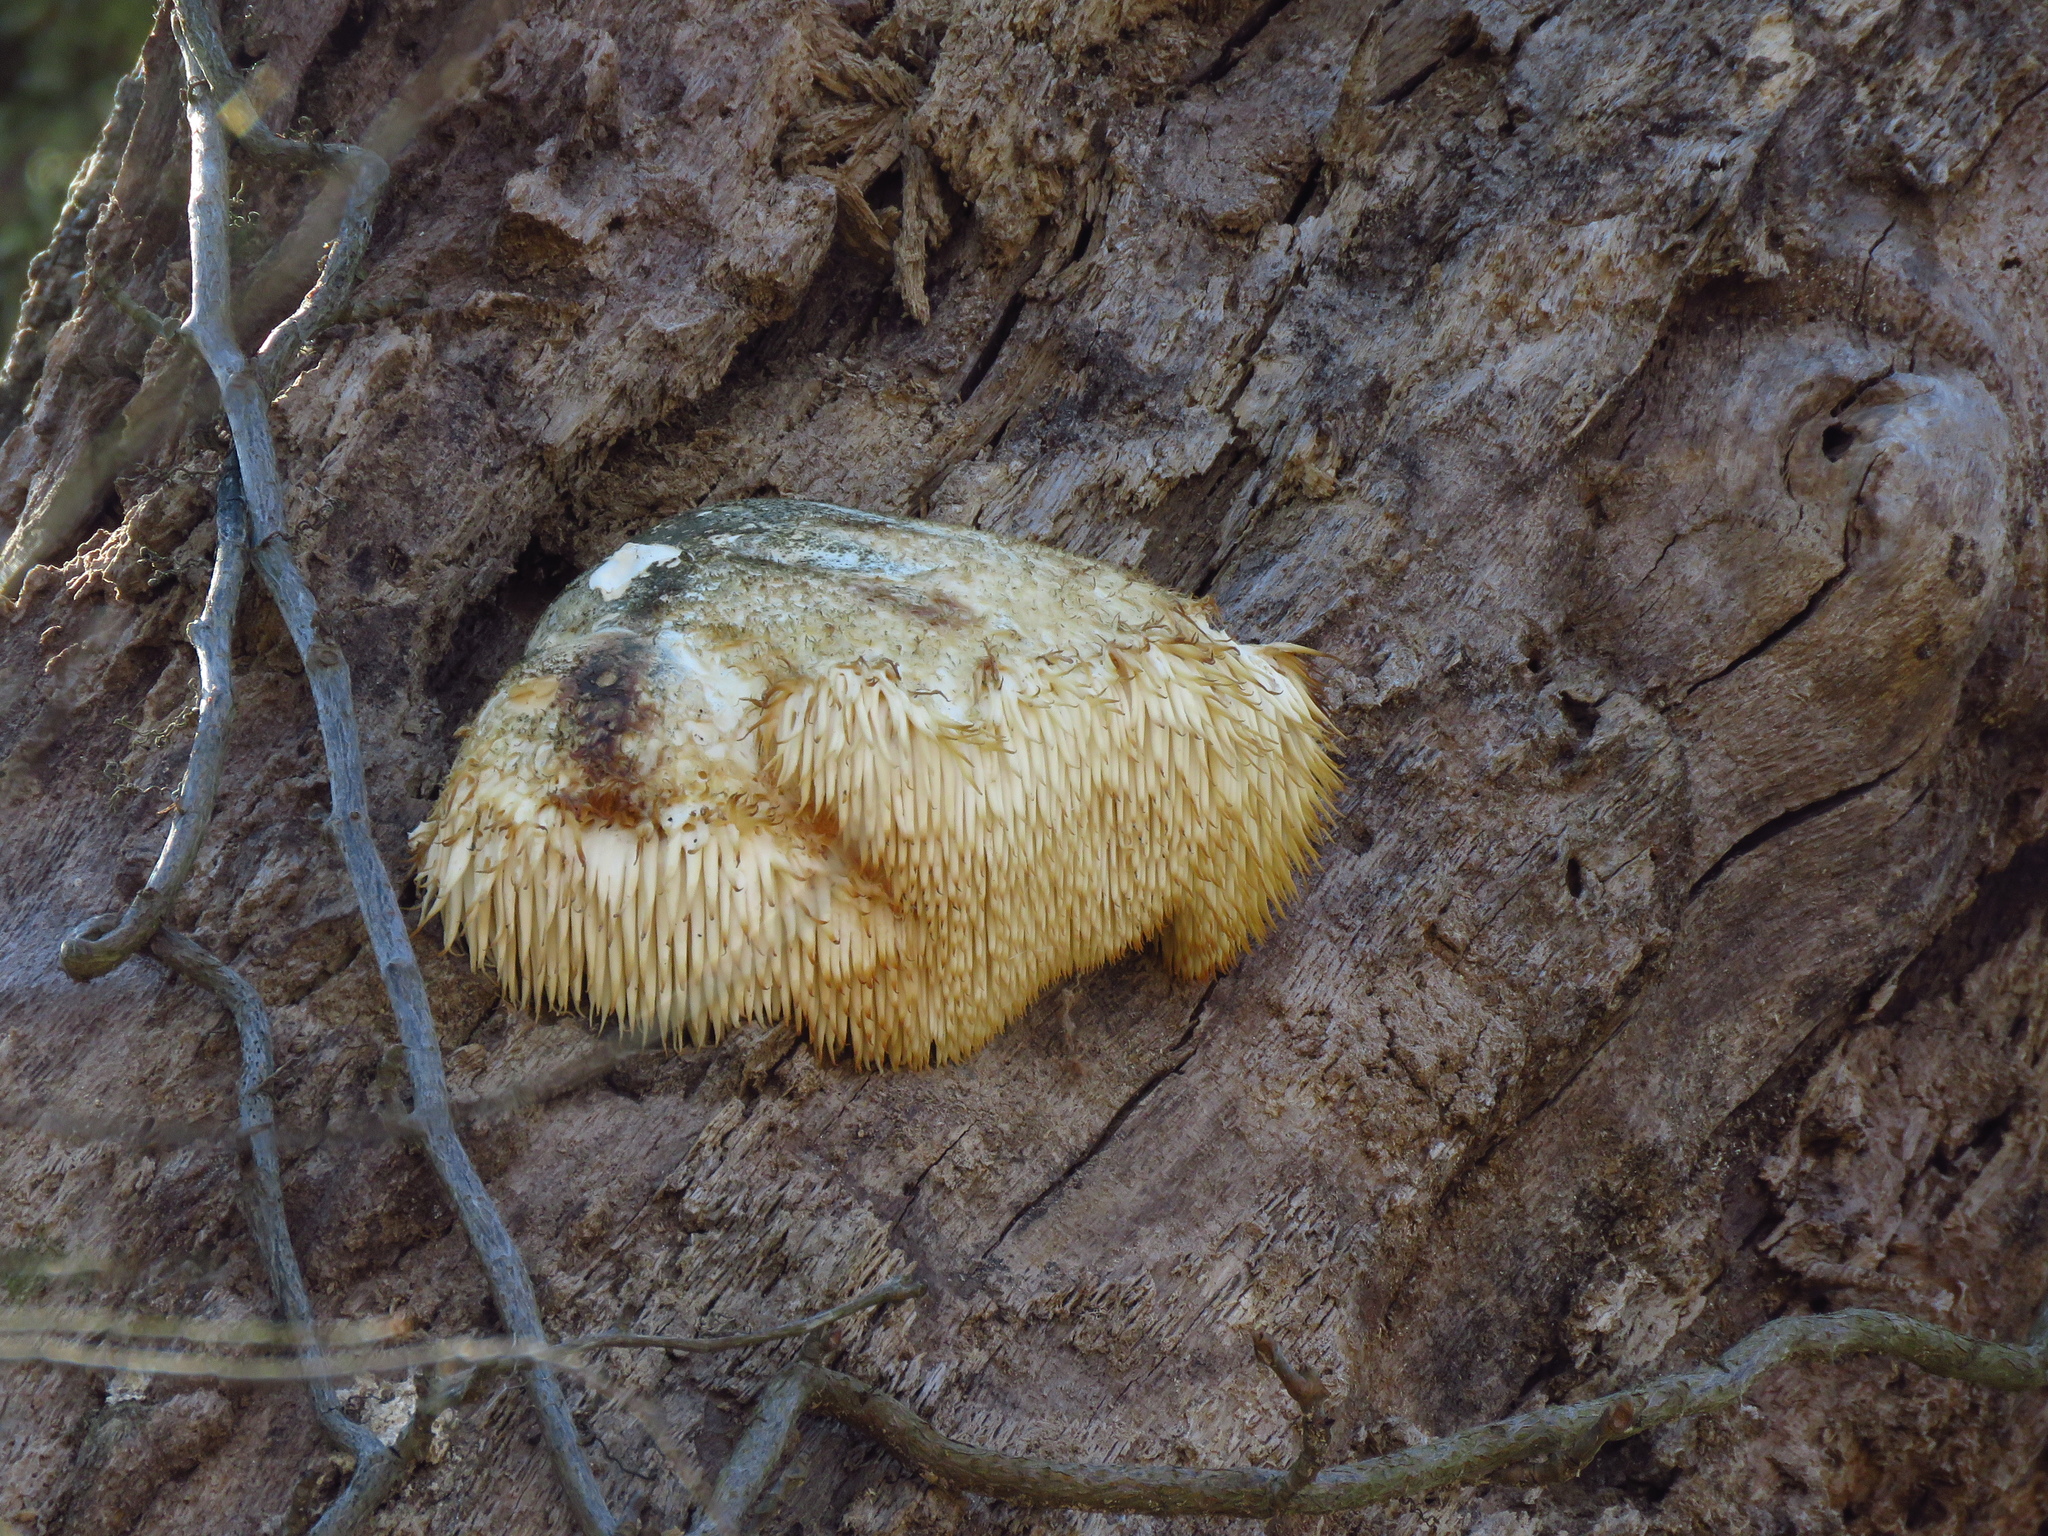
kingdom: Fungi
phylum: Basidiomycota
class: Agaricomycetes
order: Russulales
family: Hericiaceae
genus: Hericium
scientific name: Hericium erinaceus
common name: Bearded tooth
